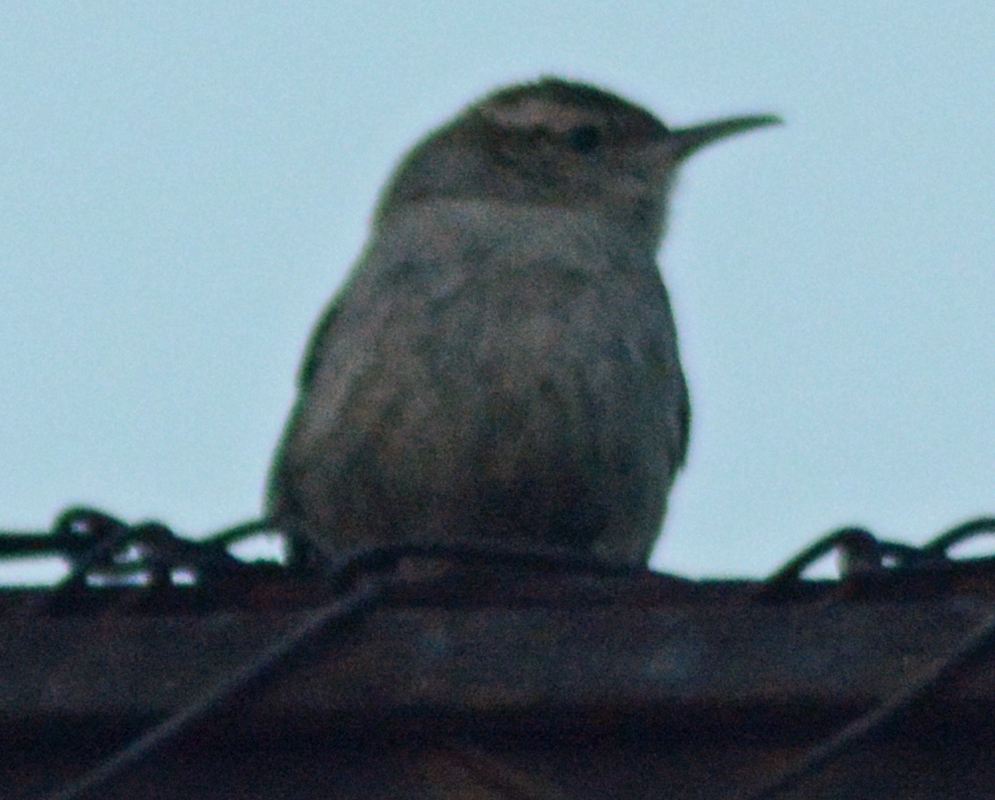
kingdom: Animalia
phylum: Chordata
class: Aves
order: Passeriformes
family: Troglodytidae
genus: Thryomanes
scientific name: Thryomanes bewickii
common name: Bewick's wren
